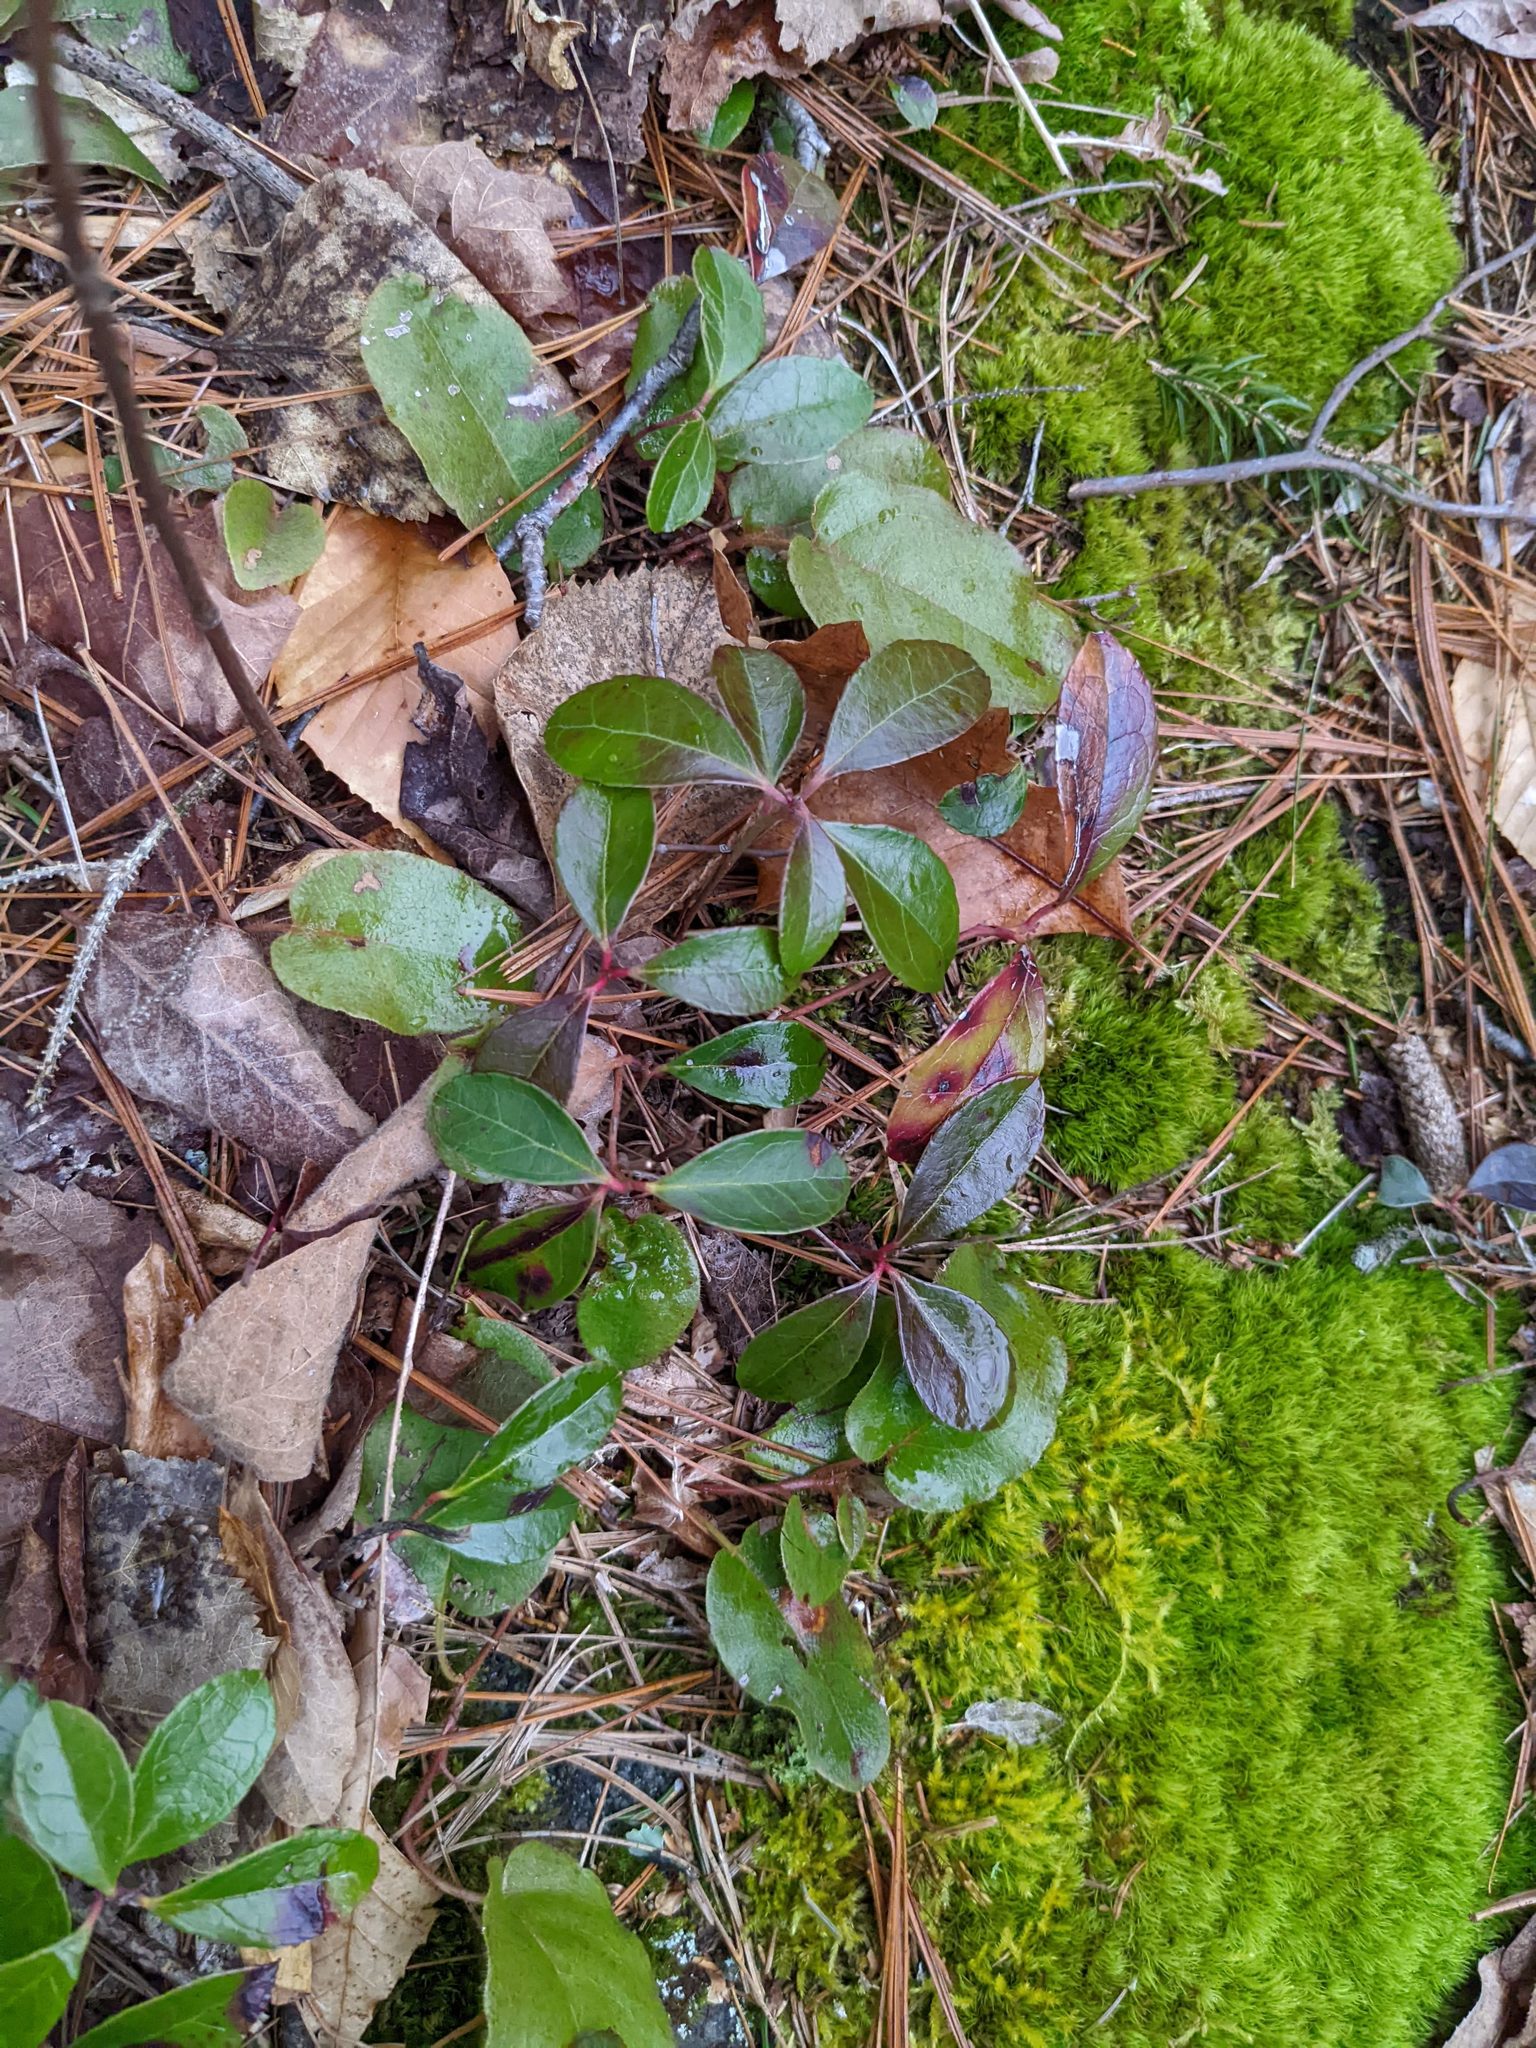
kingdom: Plantae
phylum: Tracheophyta
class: Magnoliopsida
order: Ericales
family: Ericaceae
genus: Gaultheria
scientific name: Gaultheria procumbens
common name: Checkerberry
